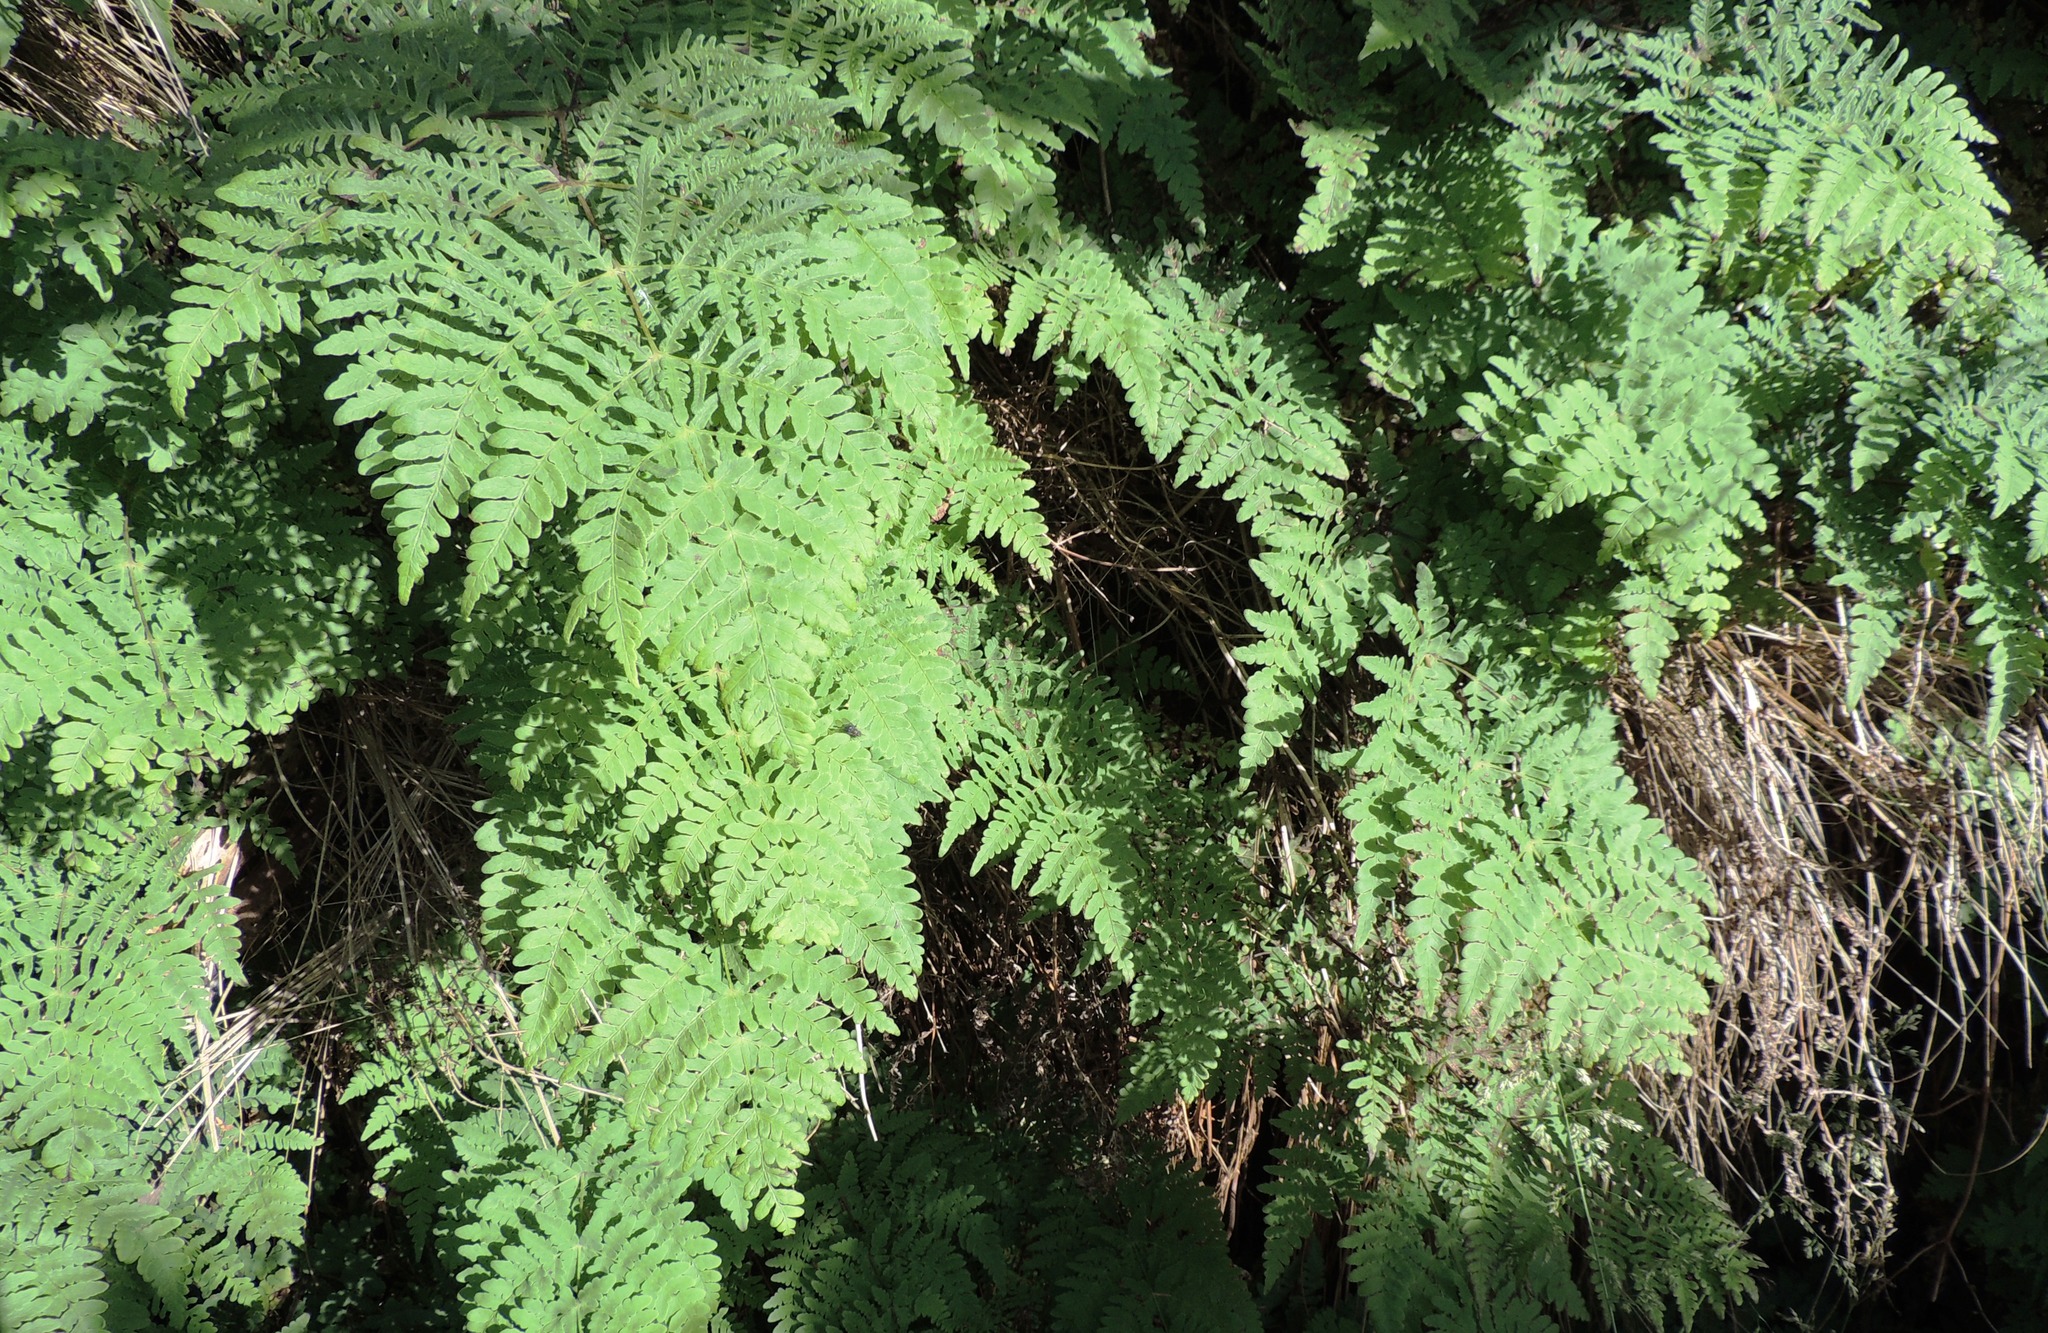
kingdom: Plantae
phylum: Tracheophyta
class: Polypodiopsida
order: Polypodiales
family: Dennstaedtiaceae
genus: Histiopteris
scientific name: Histiopteris incisa
